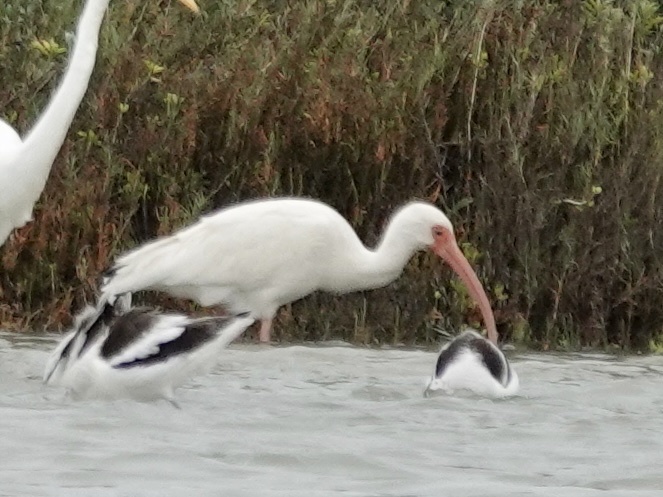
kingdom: Animalia
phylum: Chordata
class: Aves
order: Pelecaniformes
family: Threskiornithidae
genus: Eudocimus
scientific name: Eudocimus albus
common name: White ibis
